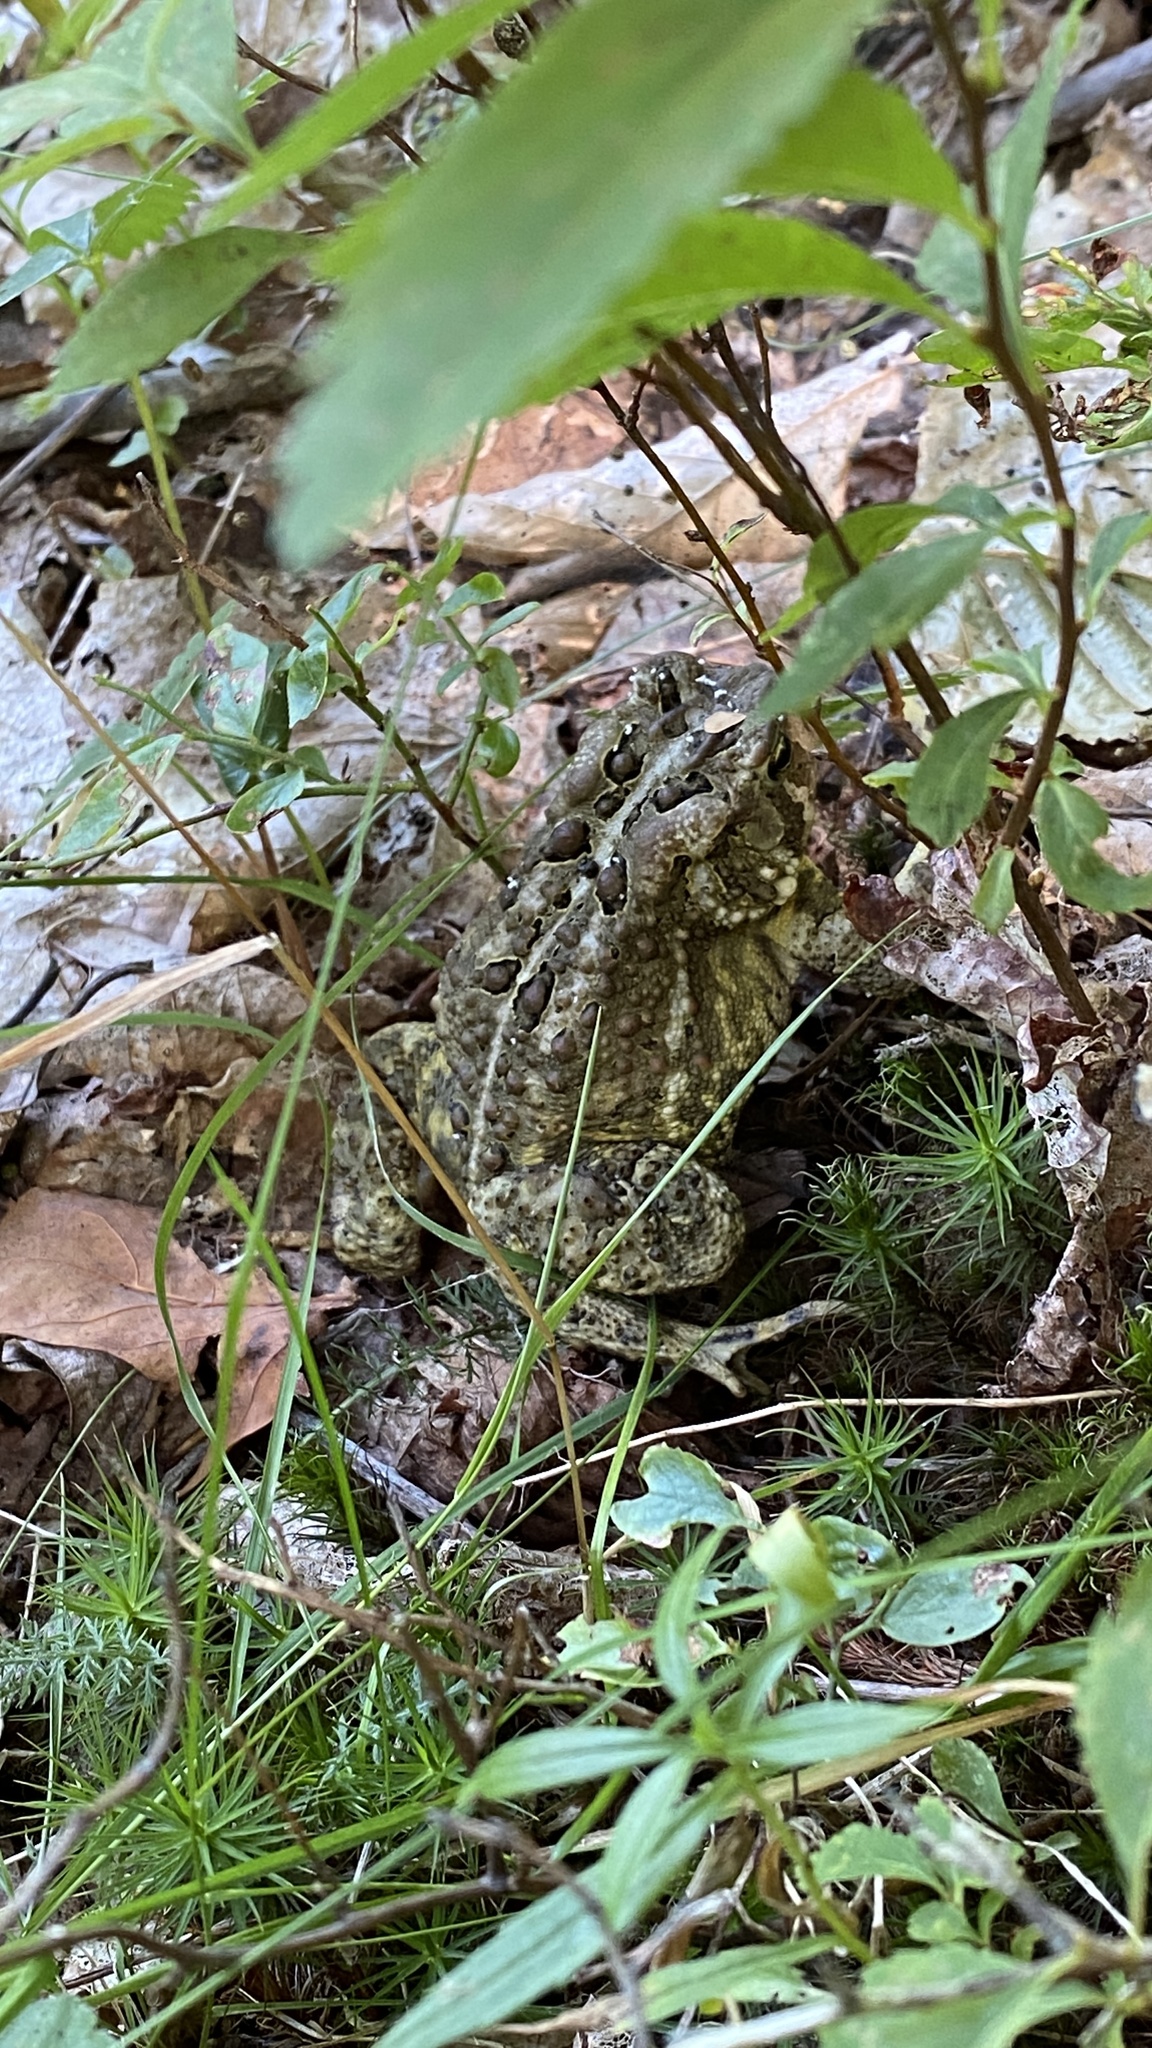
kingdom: Animalia
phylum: Chordata
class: Amphibia
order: Anura
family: Bufonidae
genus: Anaxyrus
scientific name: Anaxyrus americanus
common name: American toad
